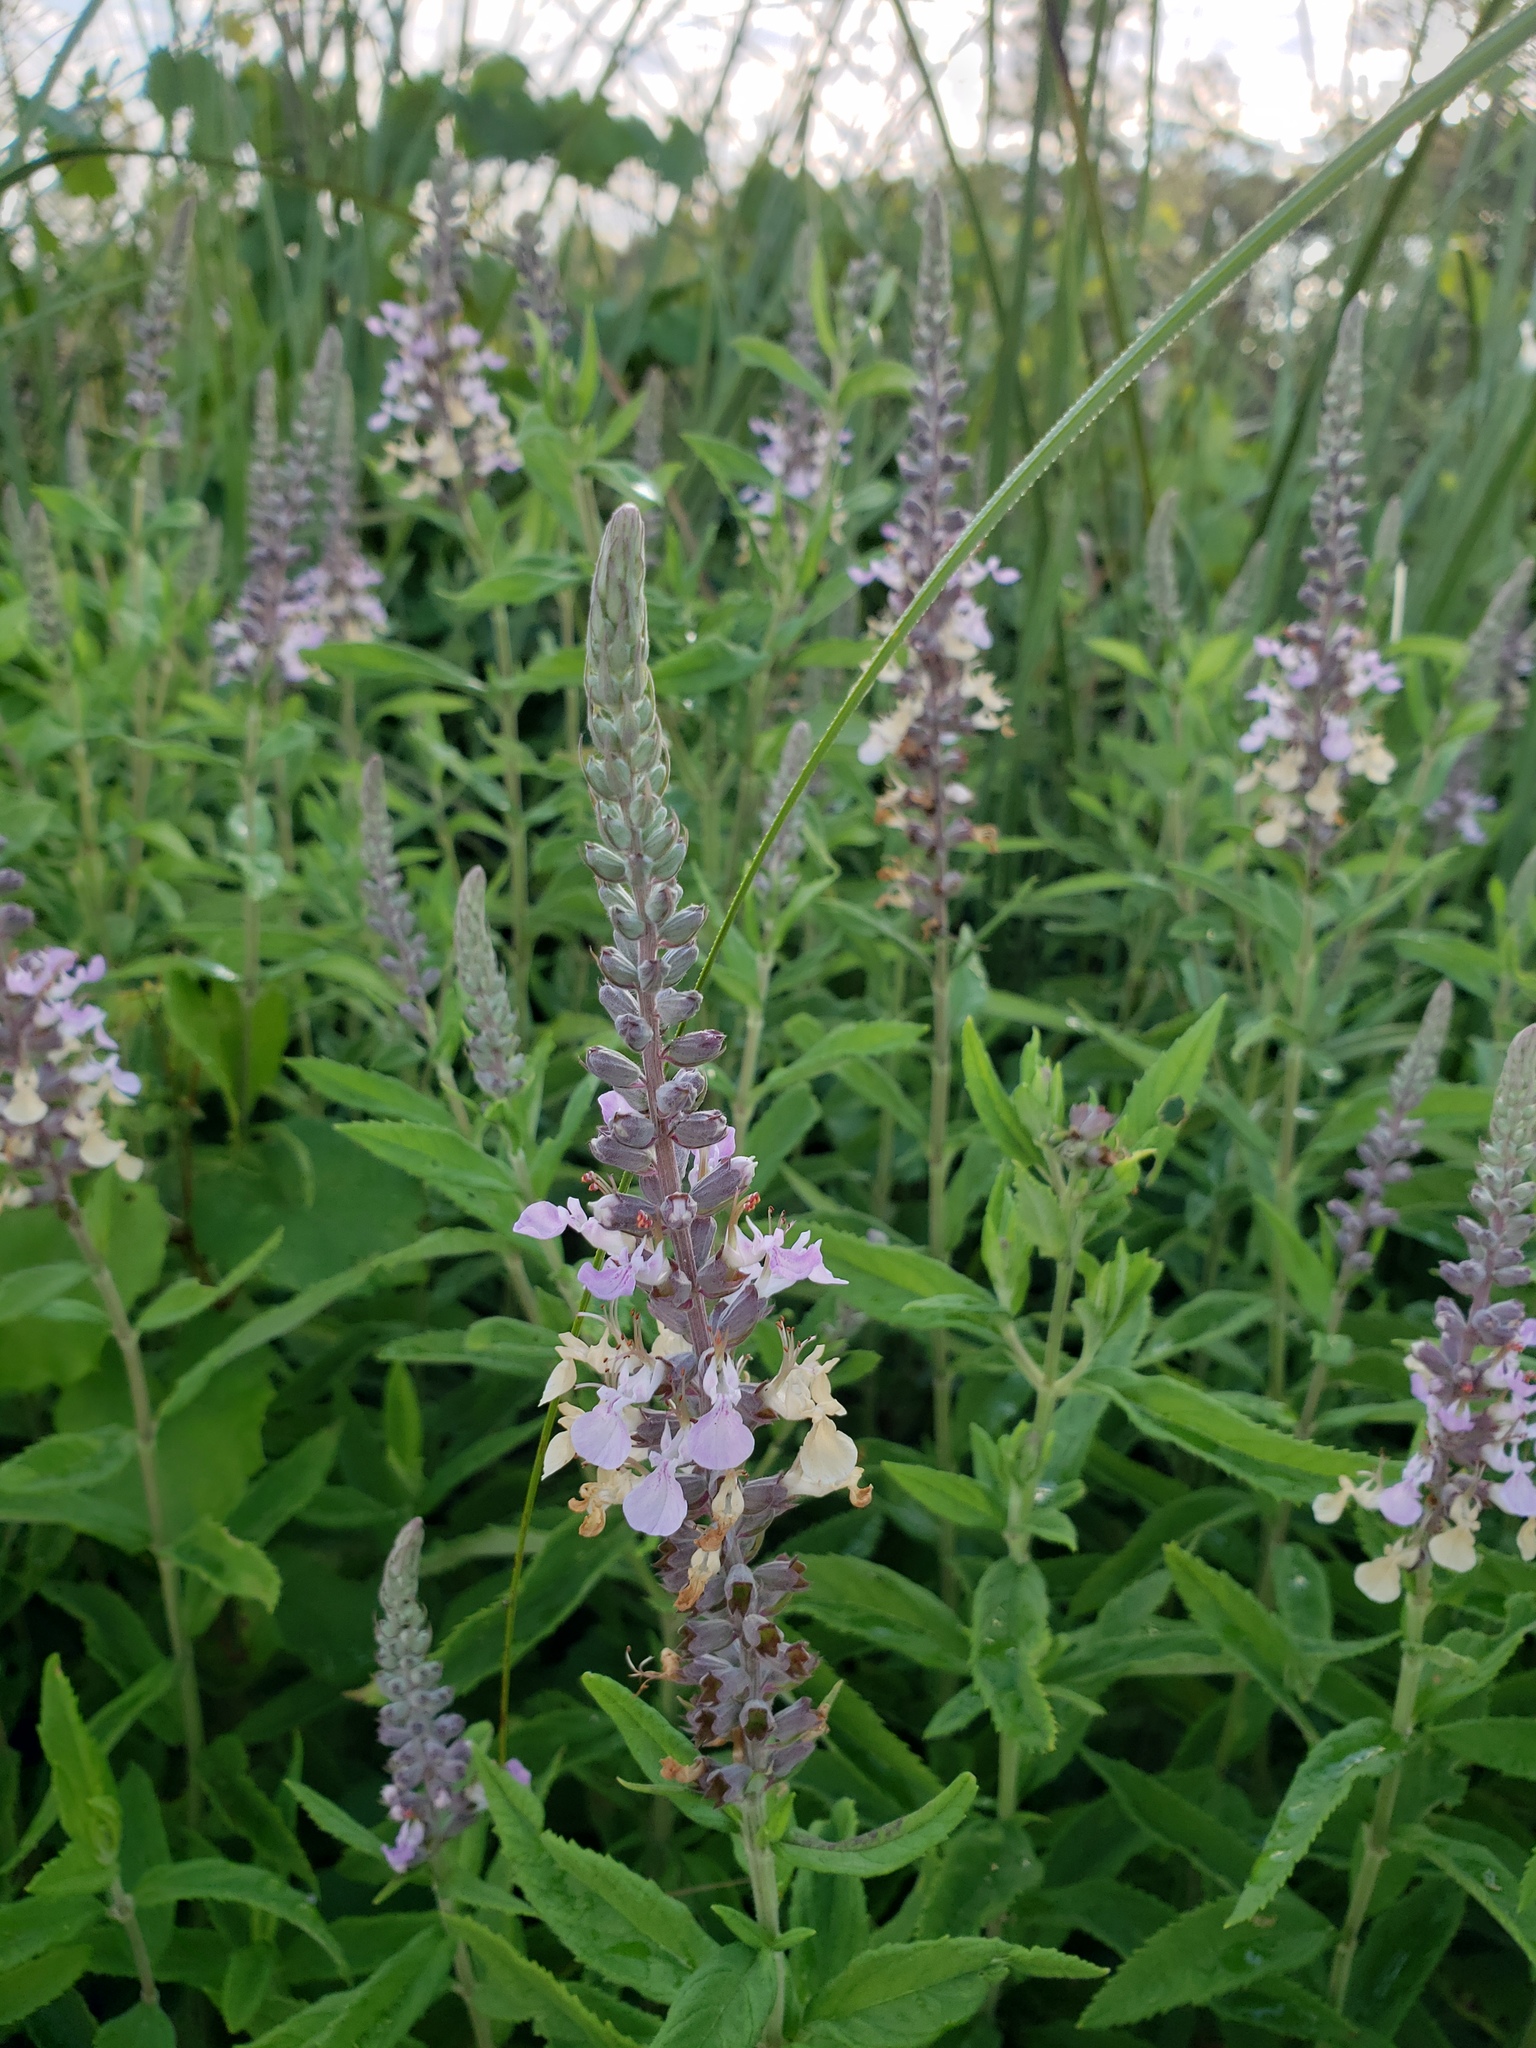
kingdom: Plantae
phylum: Tracheophyta
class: Magnoliopsida
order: Lamiales
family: Lamiaceae
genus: Teucrium
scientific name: Teucrium canadense
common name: American germander
